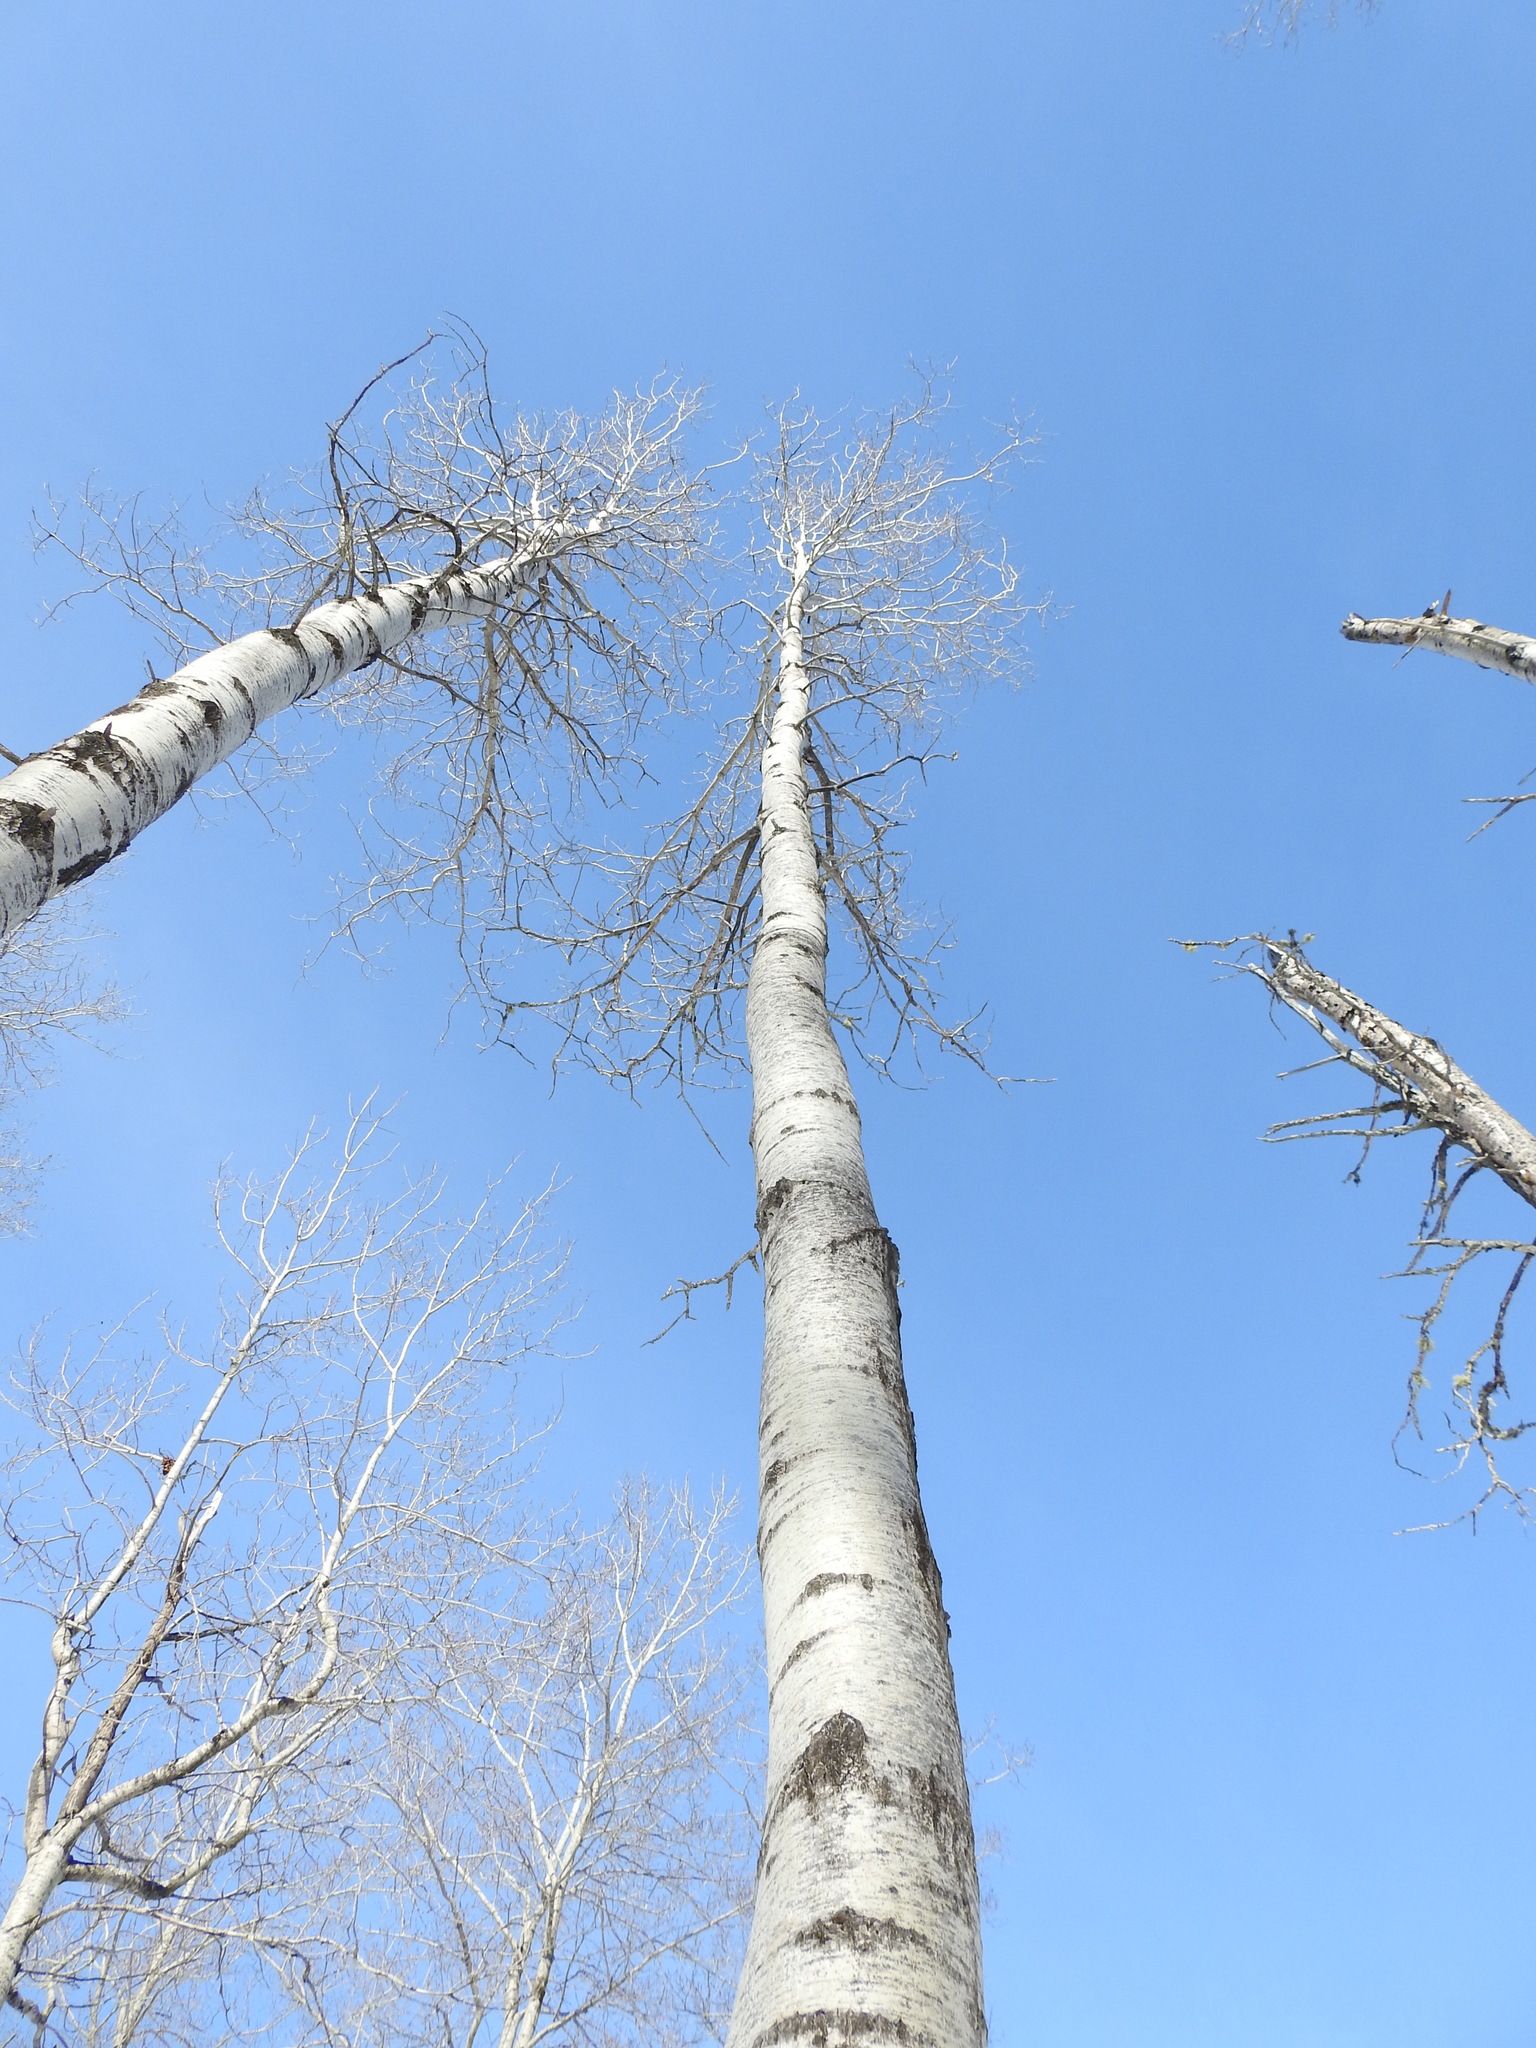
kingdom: Plantae
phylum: Tracheophyta
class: Magnoliopsida
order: Malpighiales
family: Salicaceae
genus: Populus
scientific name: Populus tremuloides
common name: Quaking aspen
